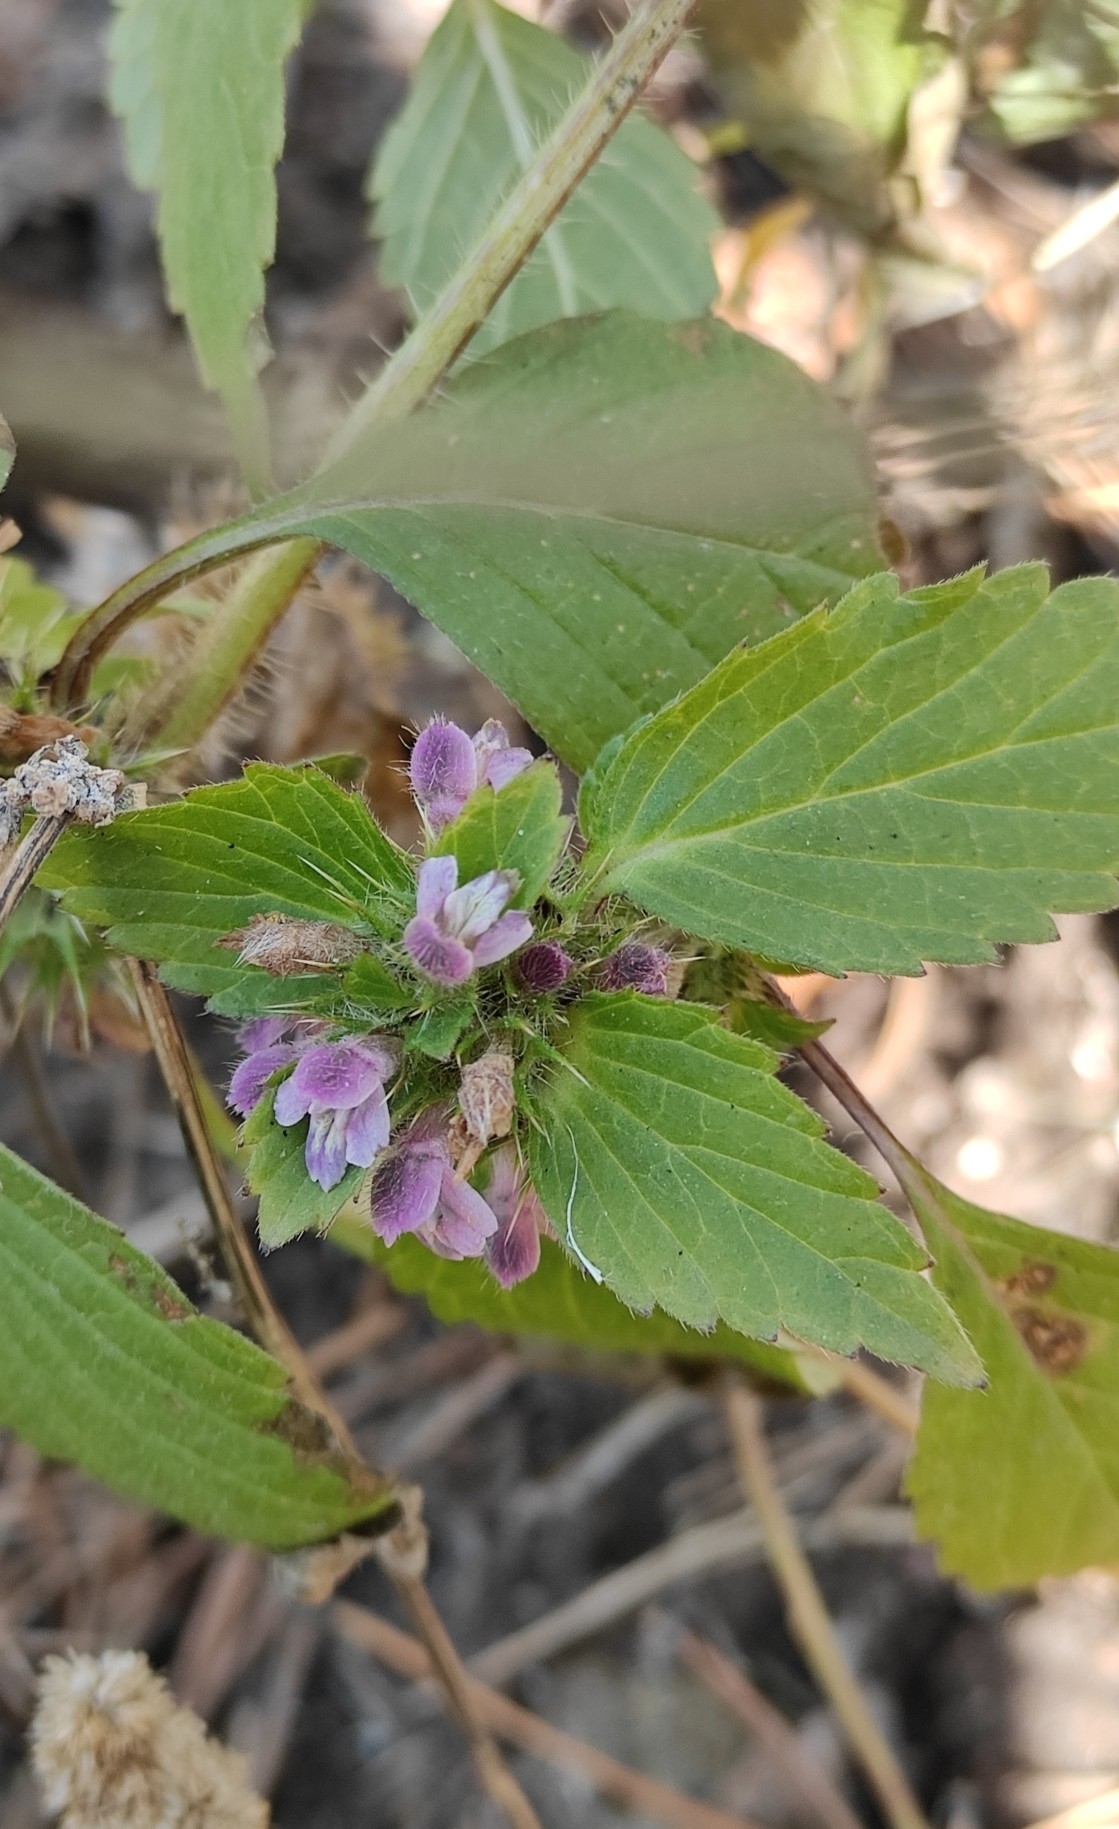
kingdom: Plantae
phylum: Tracheophyta
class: Magnoliopsida
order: Lamiales
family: Lamiaceae
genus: Galeopsis
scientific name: Galeopsis bifida
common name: Bifid hemp-nettle
